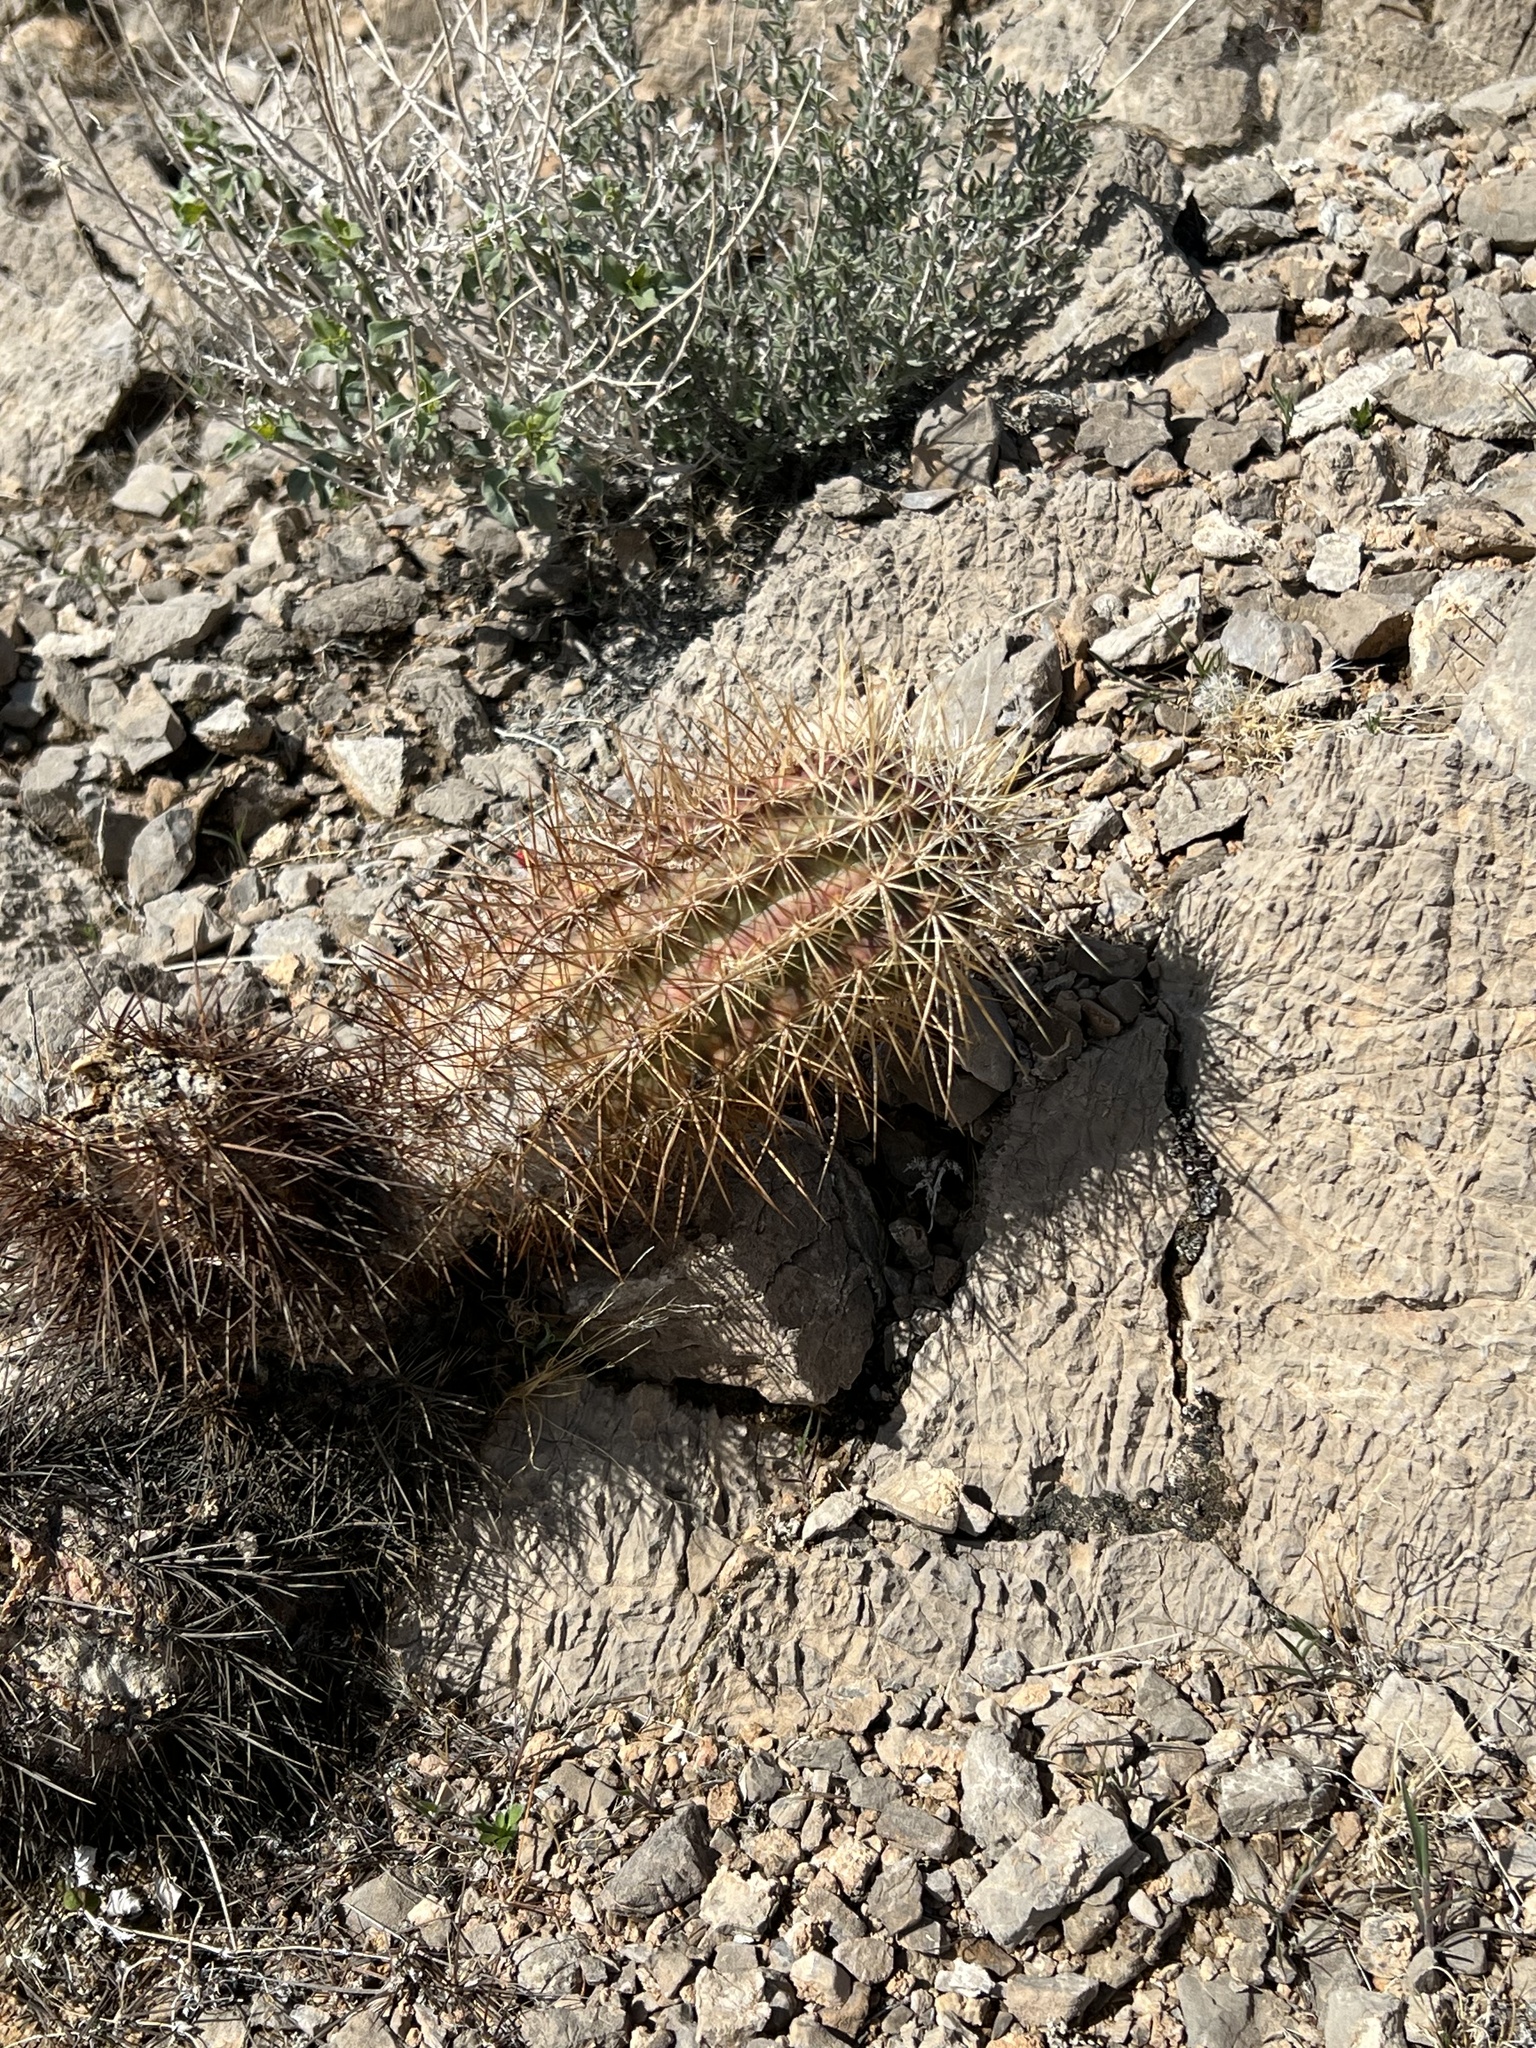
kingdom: Plantae
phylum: Tracheophyta
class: Magnoliopsida
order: Caryophyllales
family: Cactaceae
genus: Echinocereus
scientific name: Echinocereus engelmannii
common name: Engelmann's hedgehog cactus
